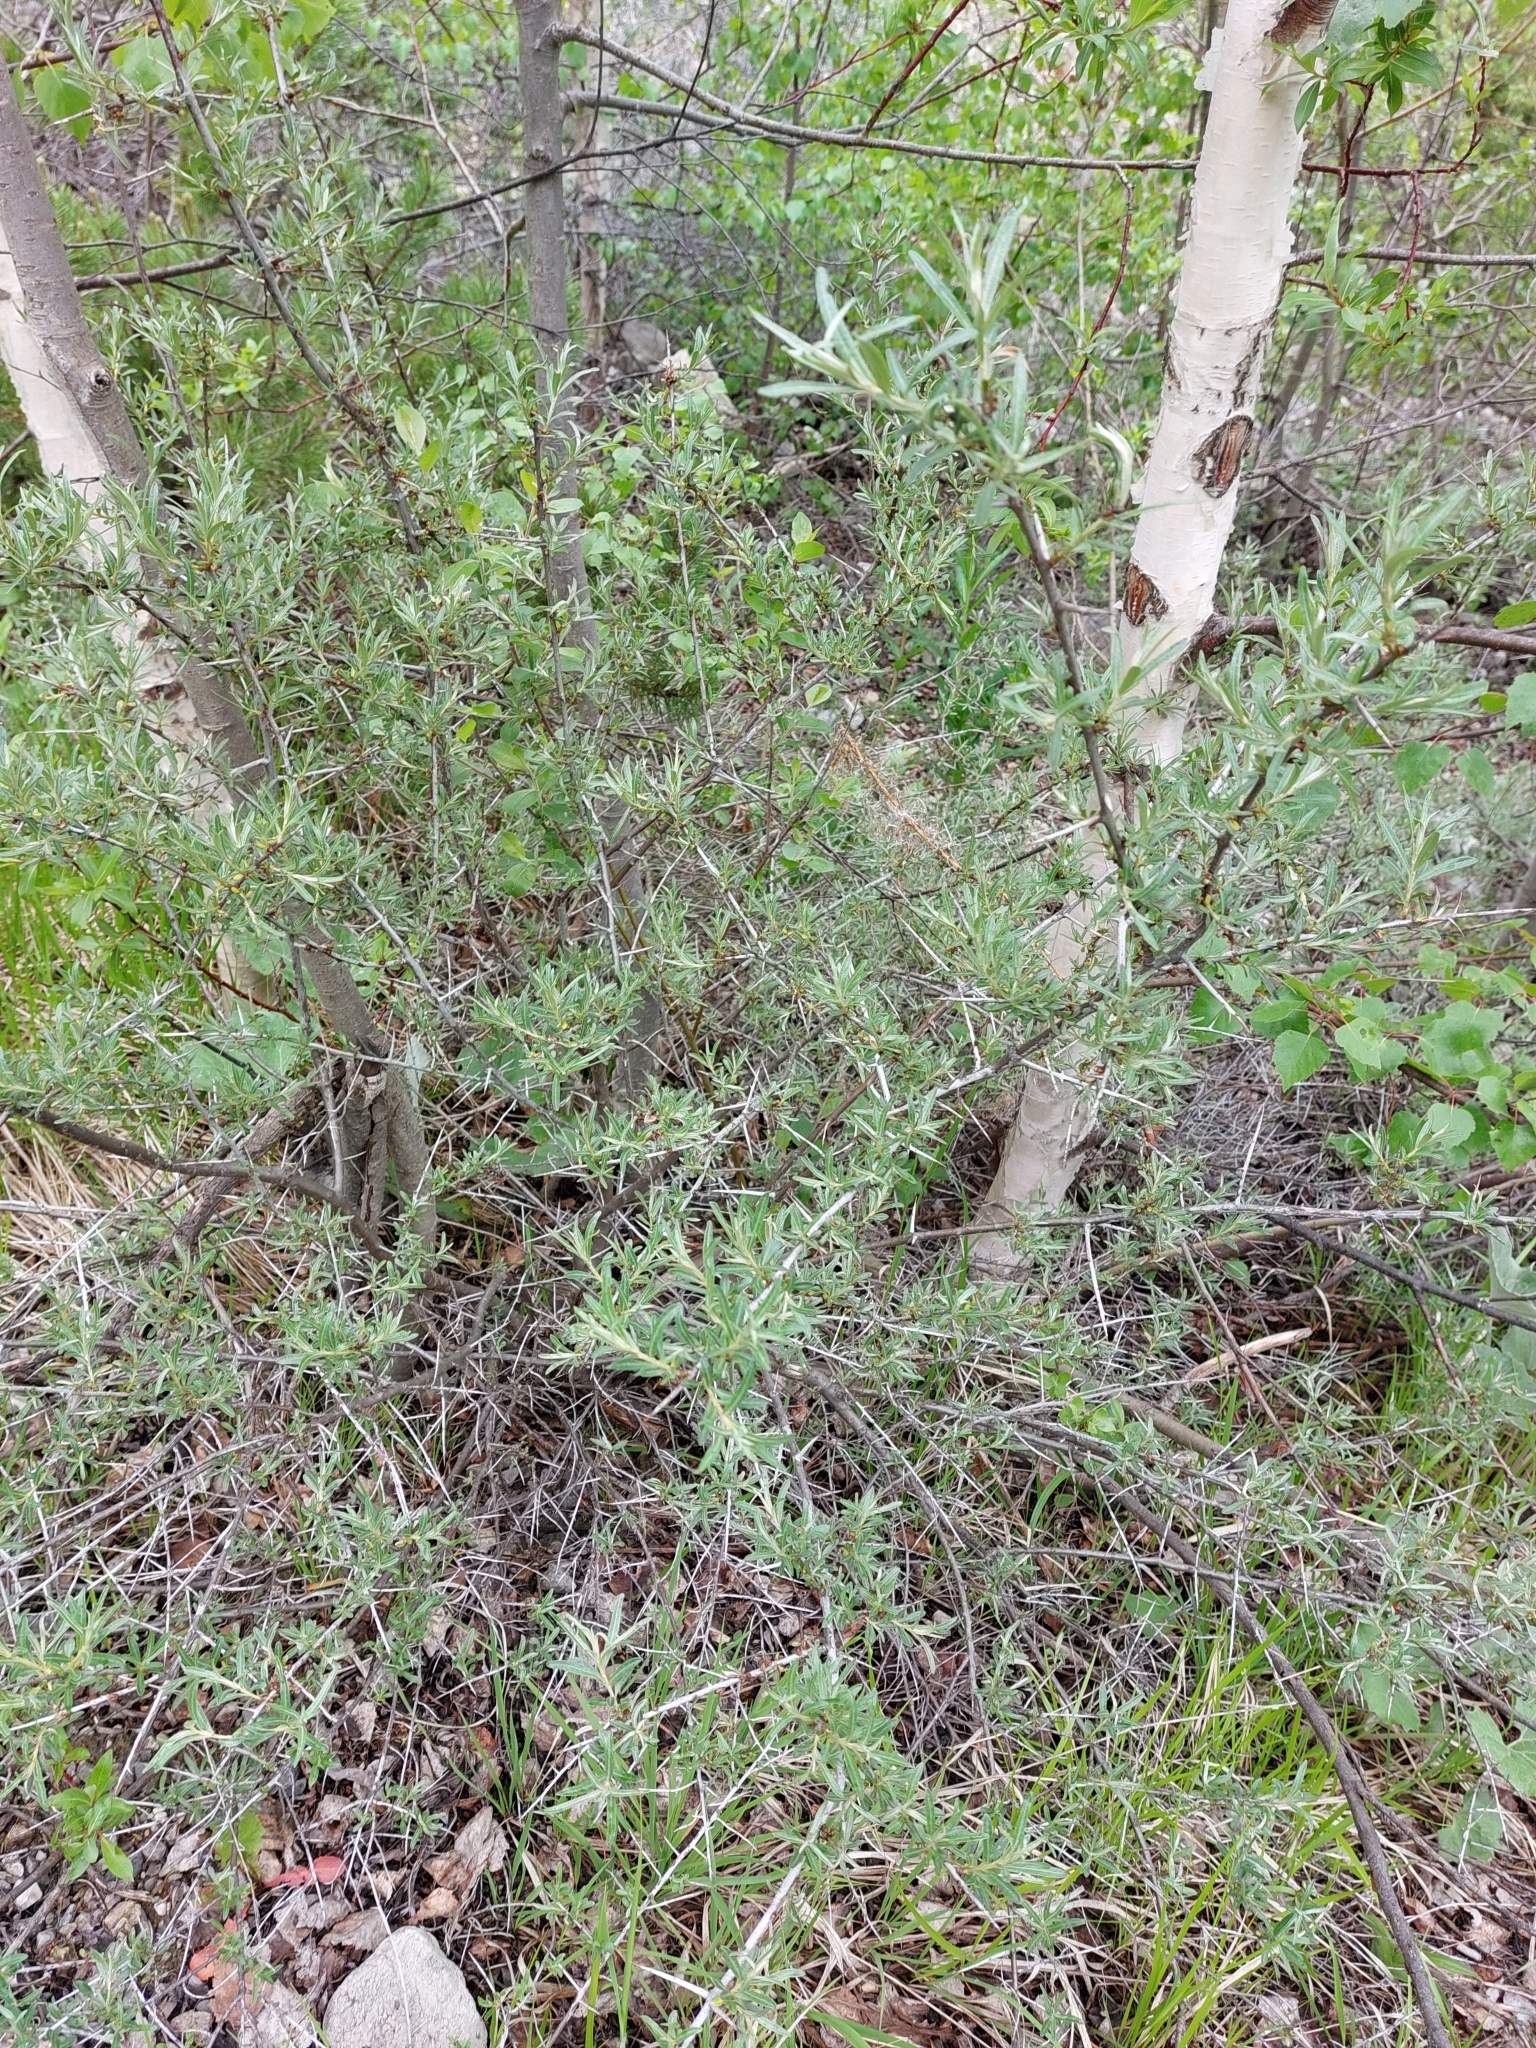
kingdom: Plantae
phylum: Tracheophyta
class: Magnoliopsida
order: Rosales
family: Elaeagnaceae
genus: Hippophae
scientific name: Hippophae rhamnoides
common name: Sea-buckthorn
